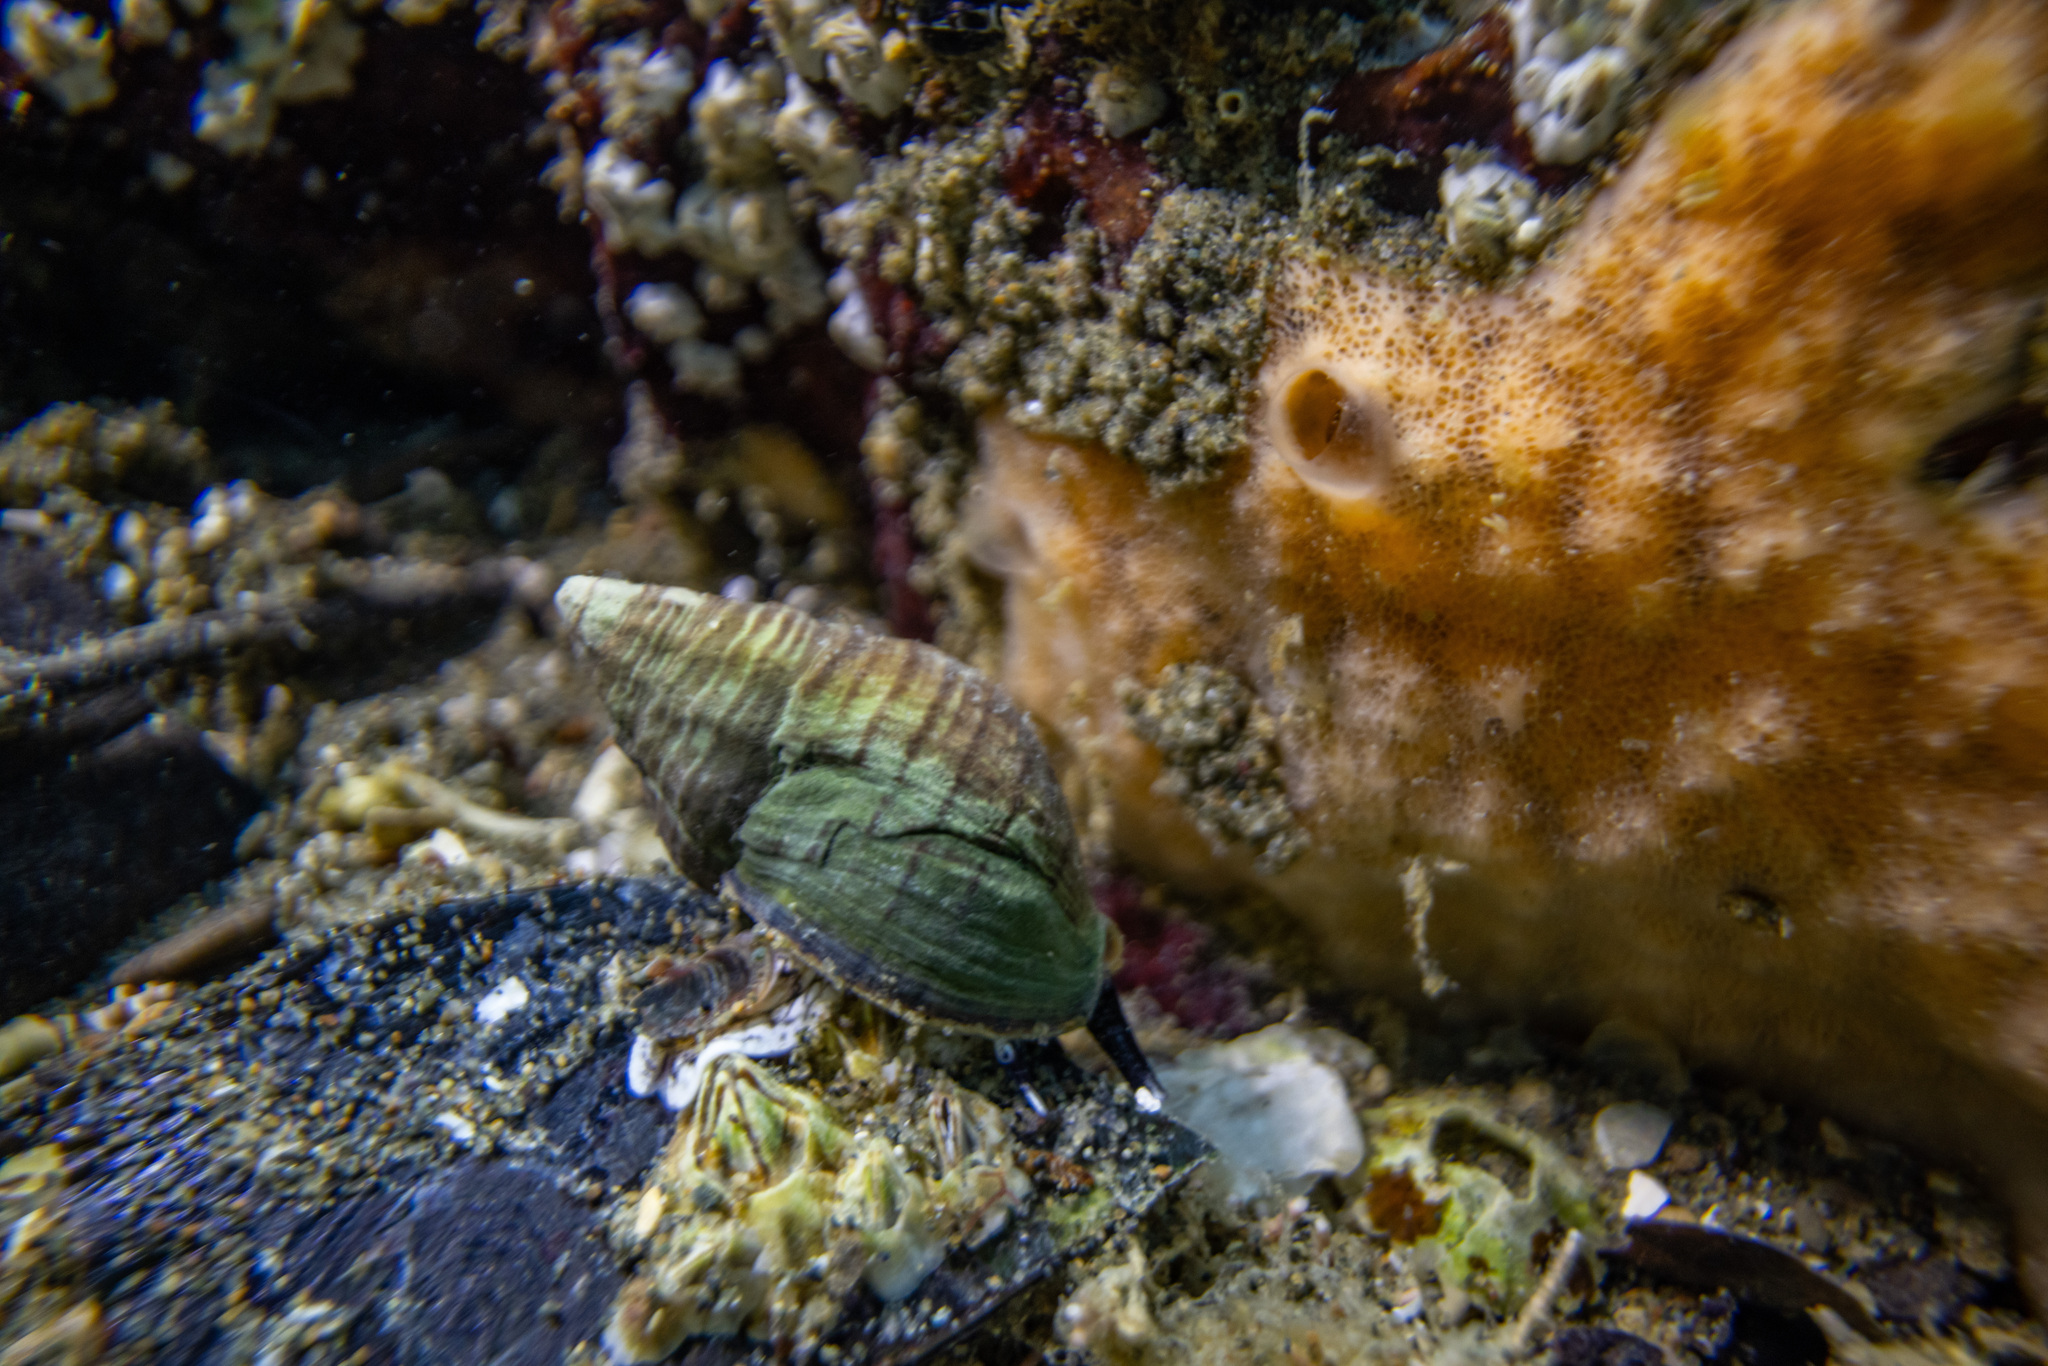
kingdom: Animalia
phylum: Mollusca
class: Gastropoda
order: Neogastropoda
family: Cominellidae
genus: Cominella
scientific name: Cominella virgata
